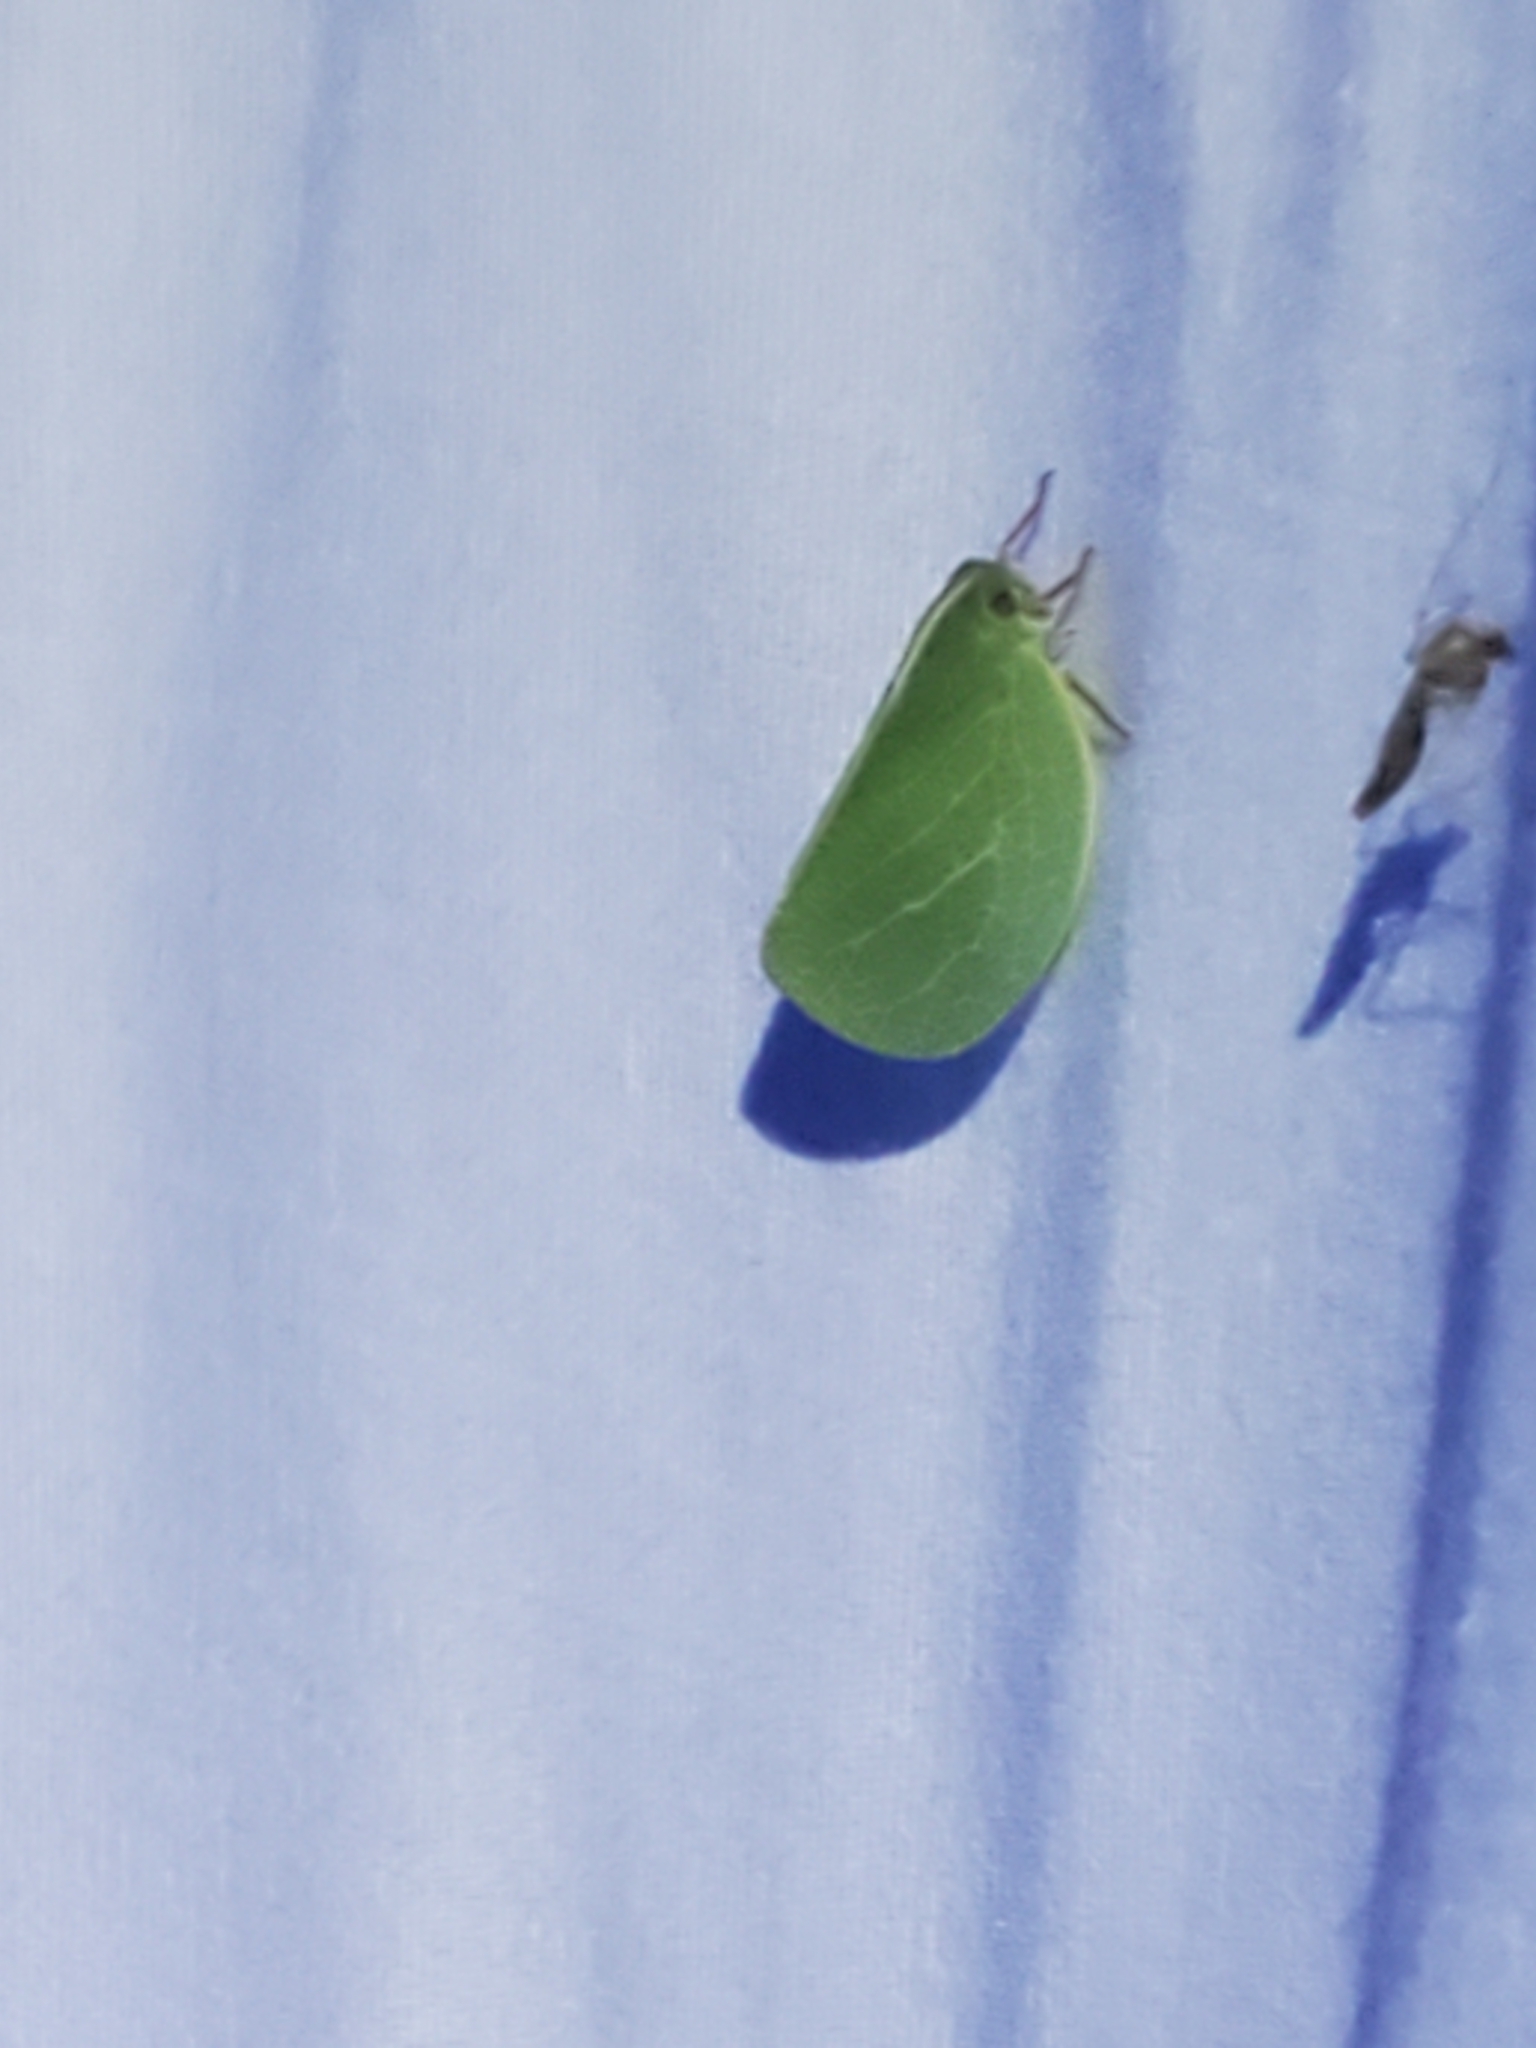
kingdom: Animalia
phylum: Arthropoda
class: Insecta
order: Hemiptera
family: Acanaloniidae
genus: Acanalonia
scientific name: Acanalonia servillei
